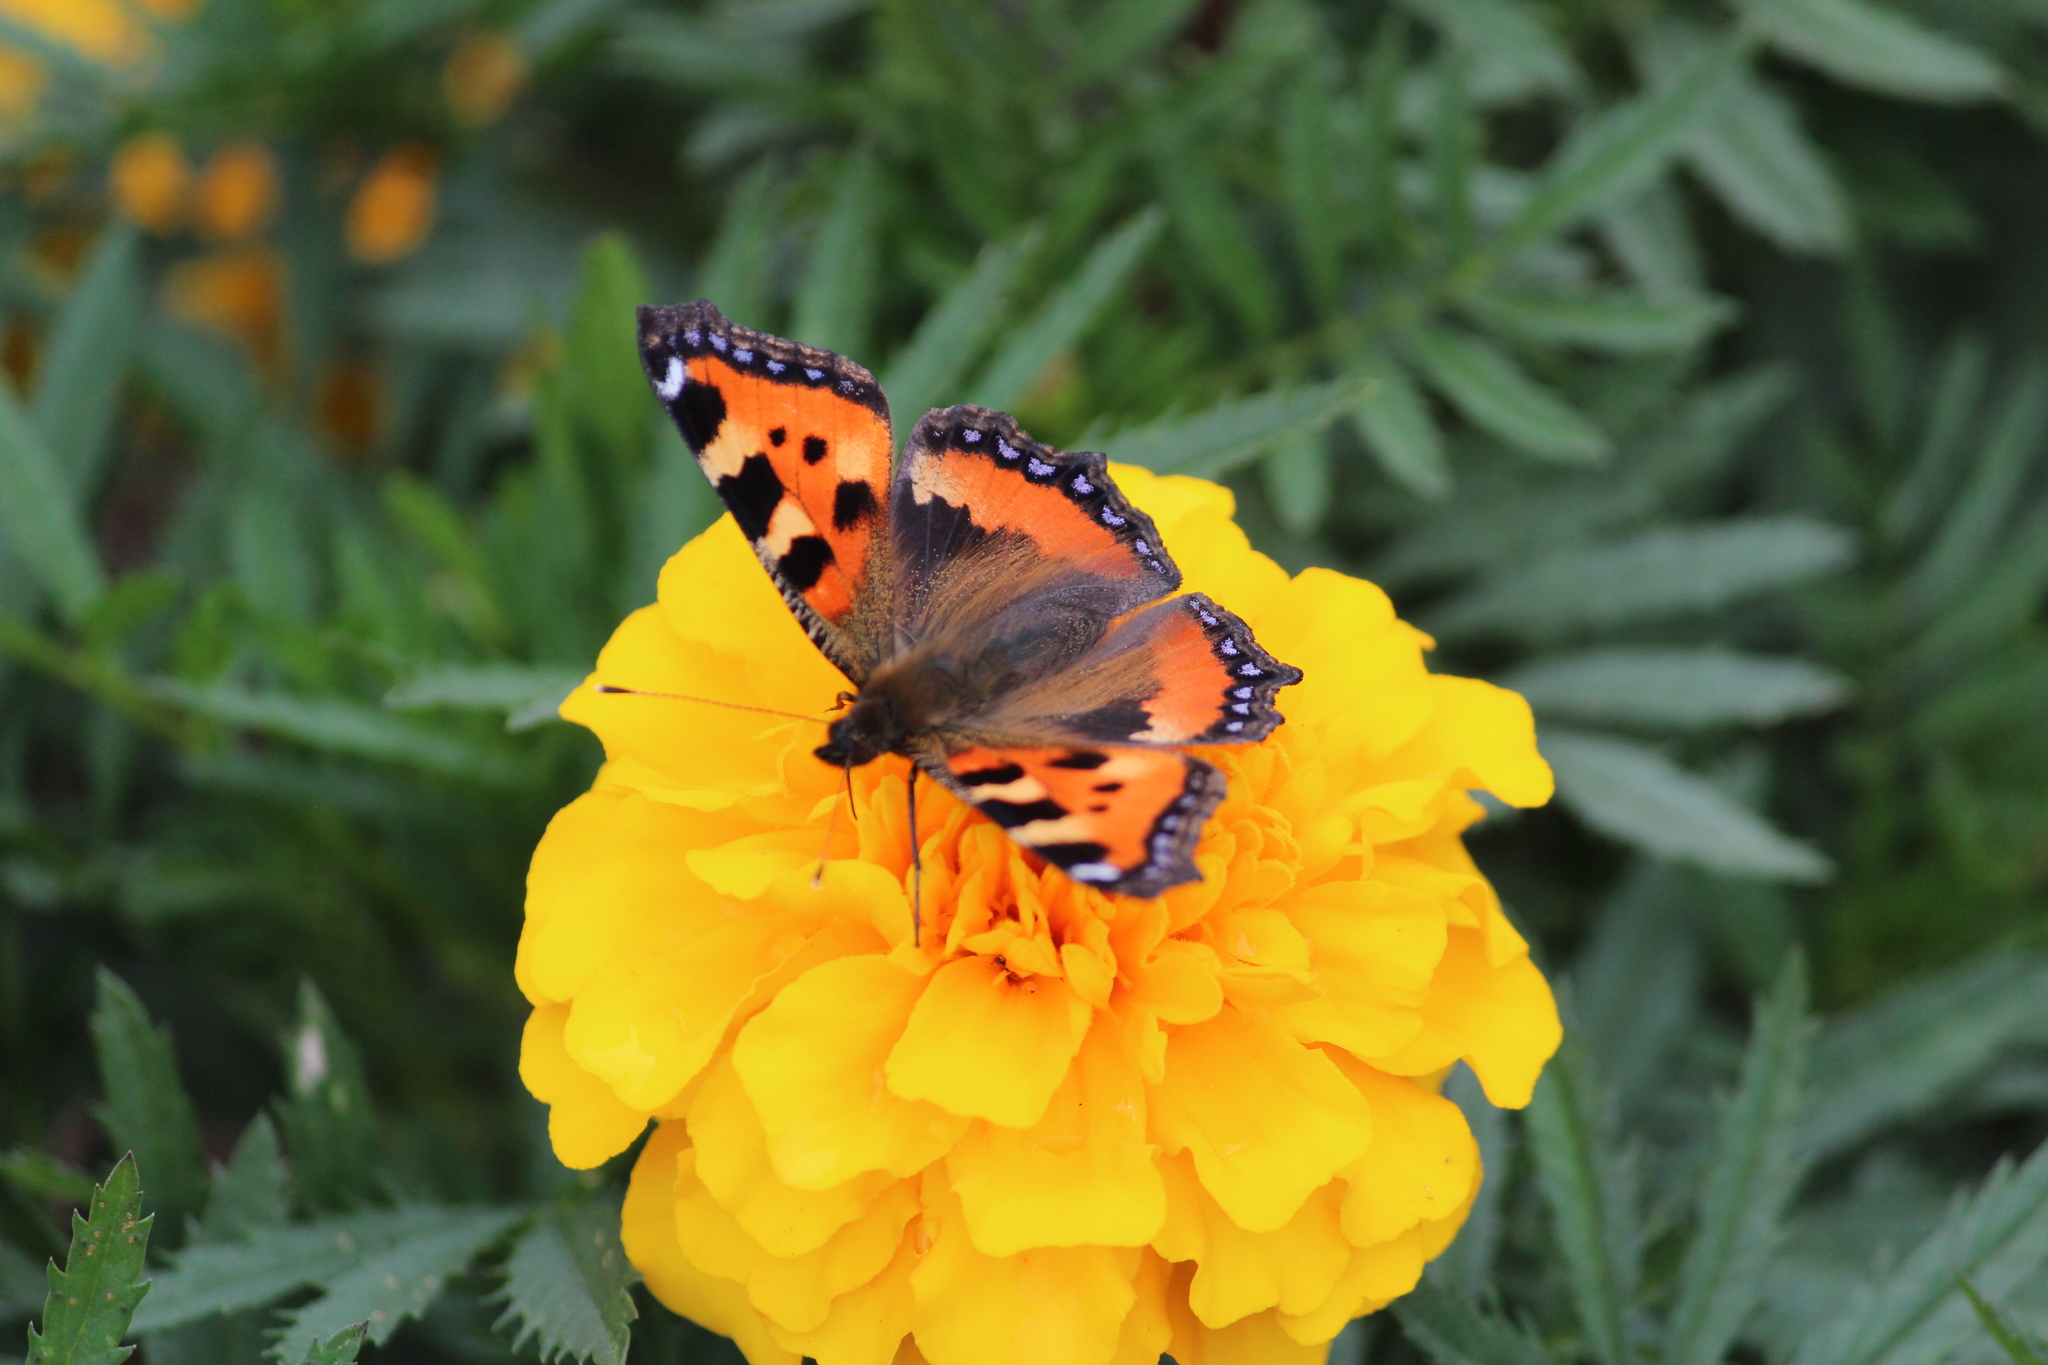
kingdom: Animalia
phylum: Arthropoda
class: Insecta
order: Lepidoptera
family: Nymphalidae
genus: Aglais
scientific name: Aglais urticae
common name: Small tortoiseshell
